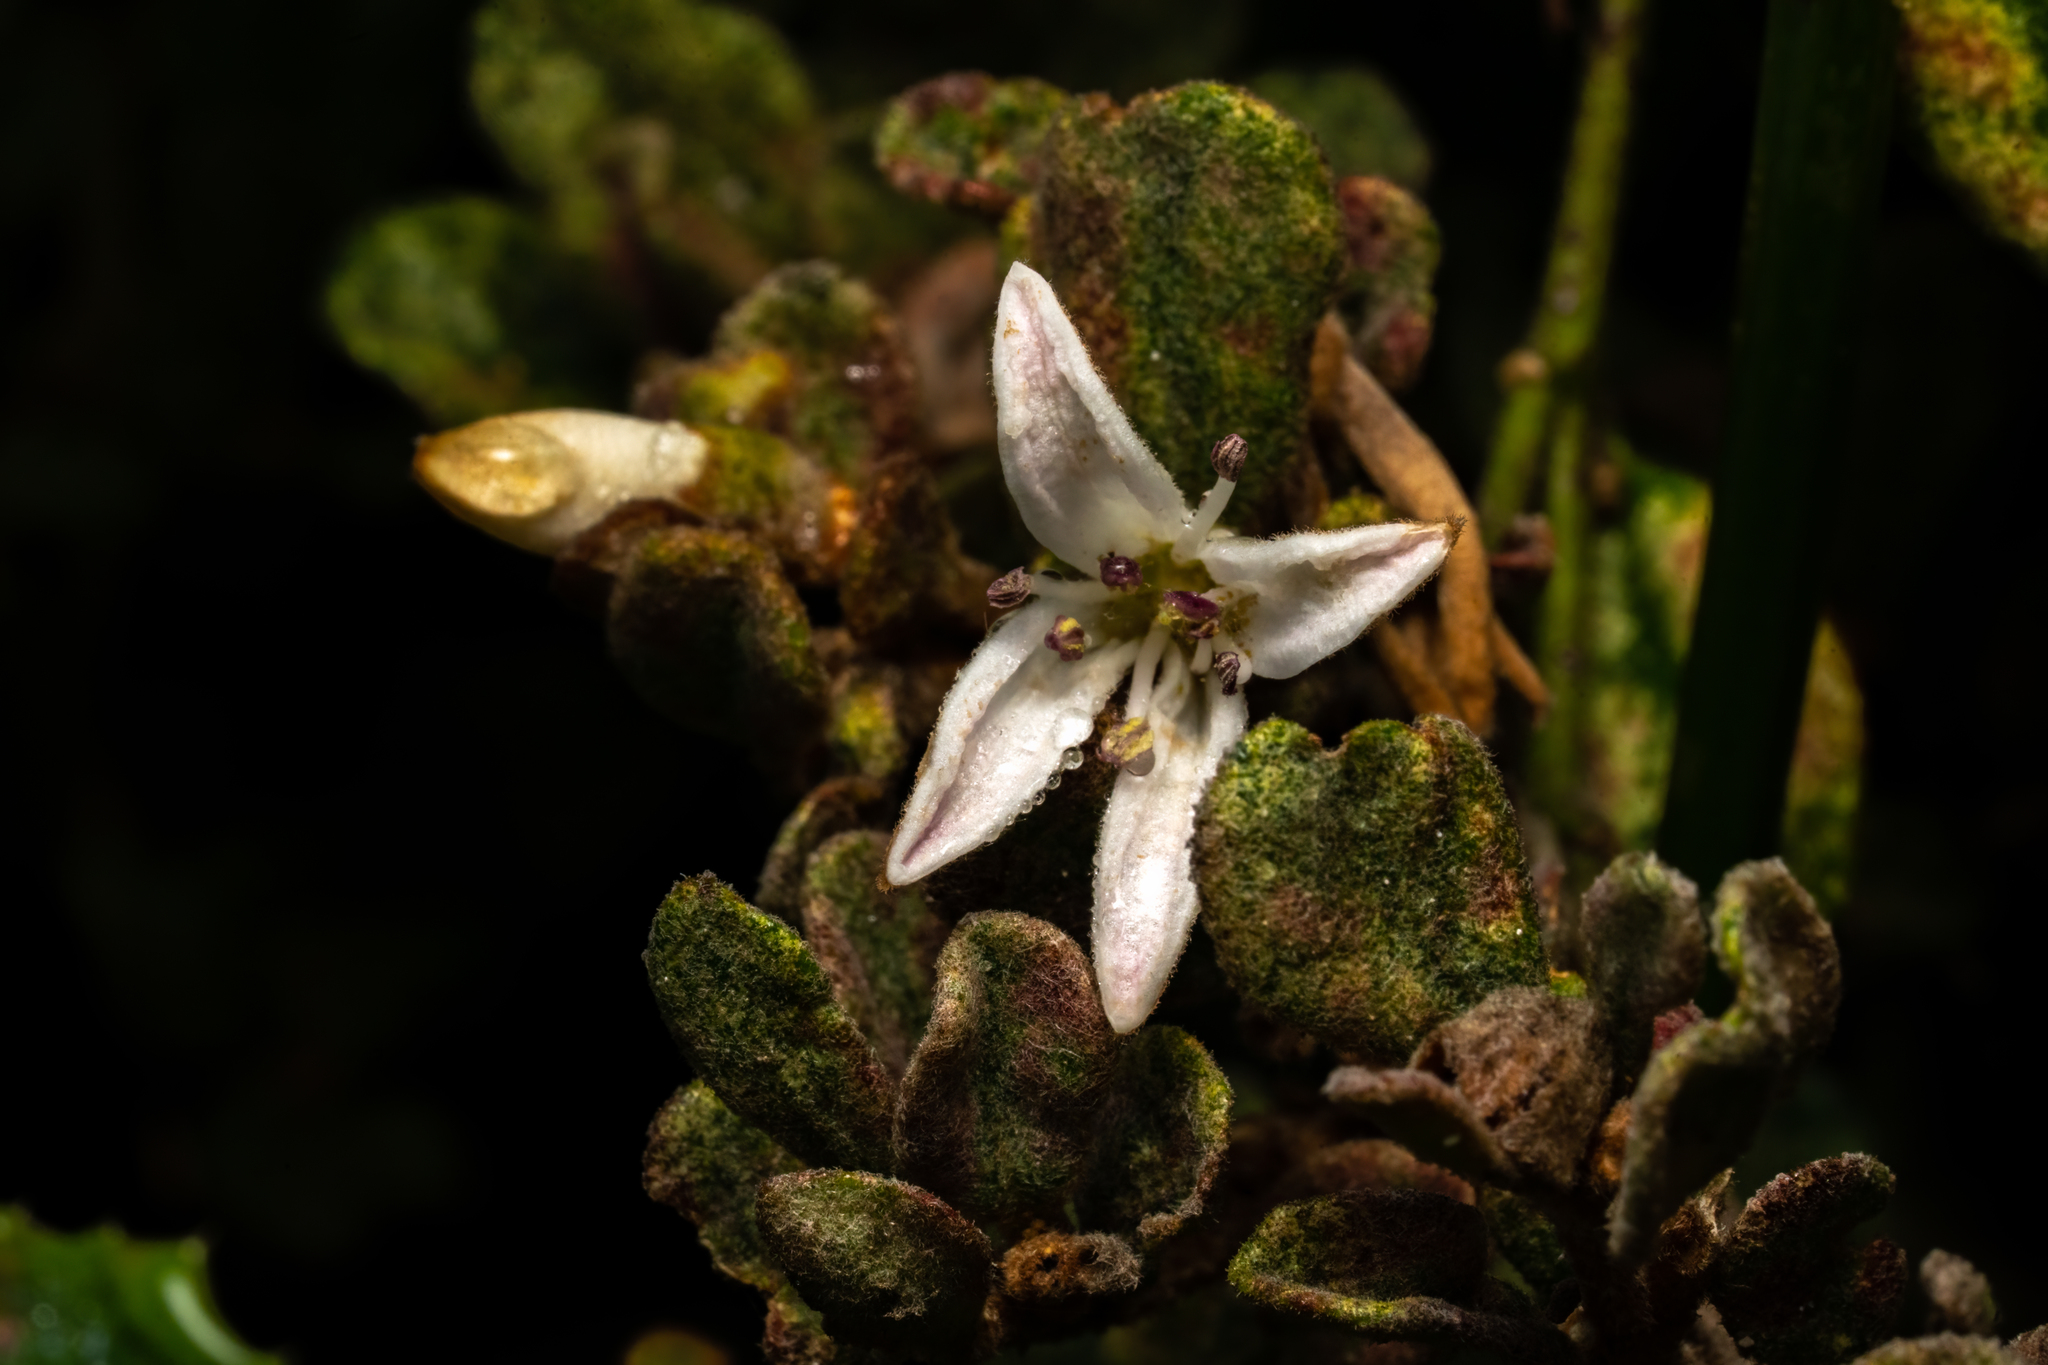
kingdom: Plantae
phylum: Tracheophyta
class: Magnoliopsida
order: Sapindales
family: Rutaceae
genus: Correa
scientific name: Correa alba
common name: White correa
